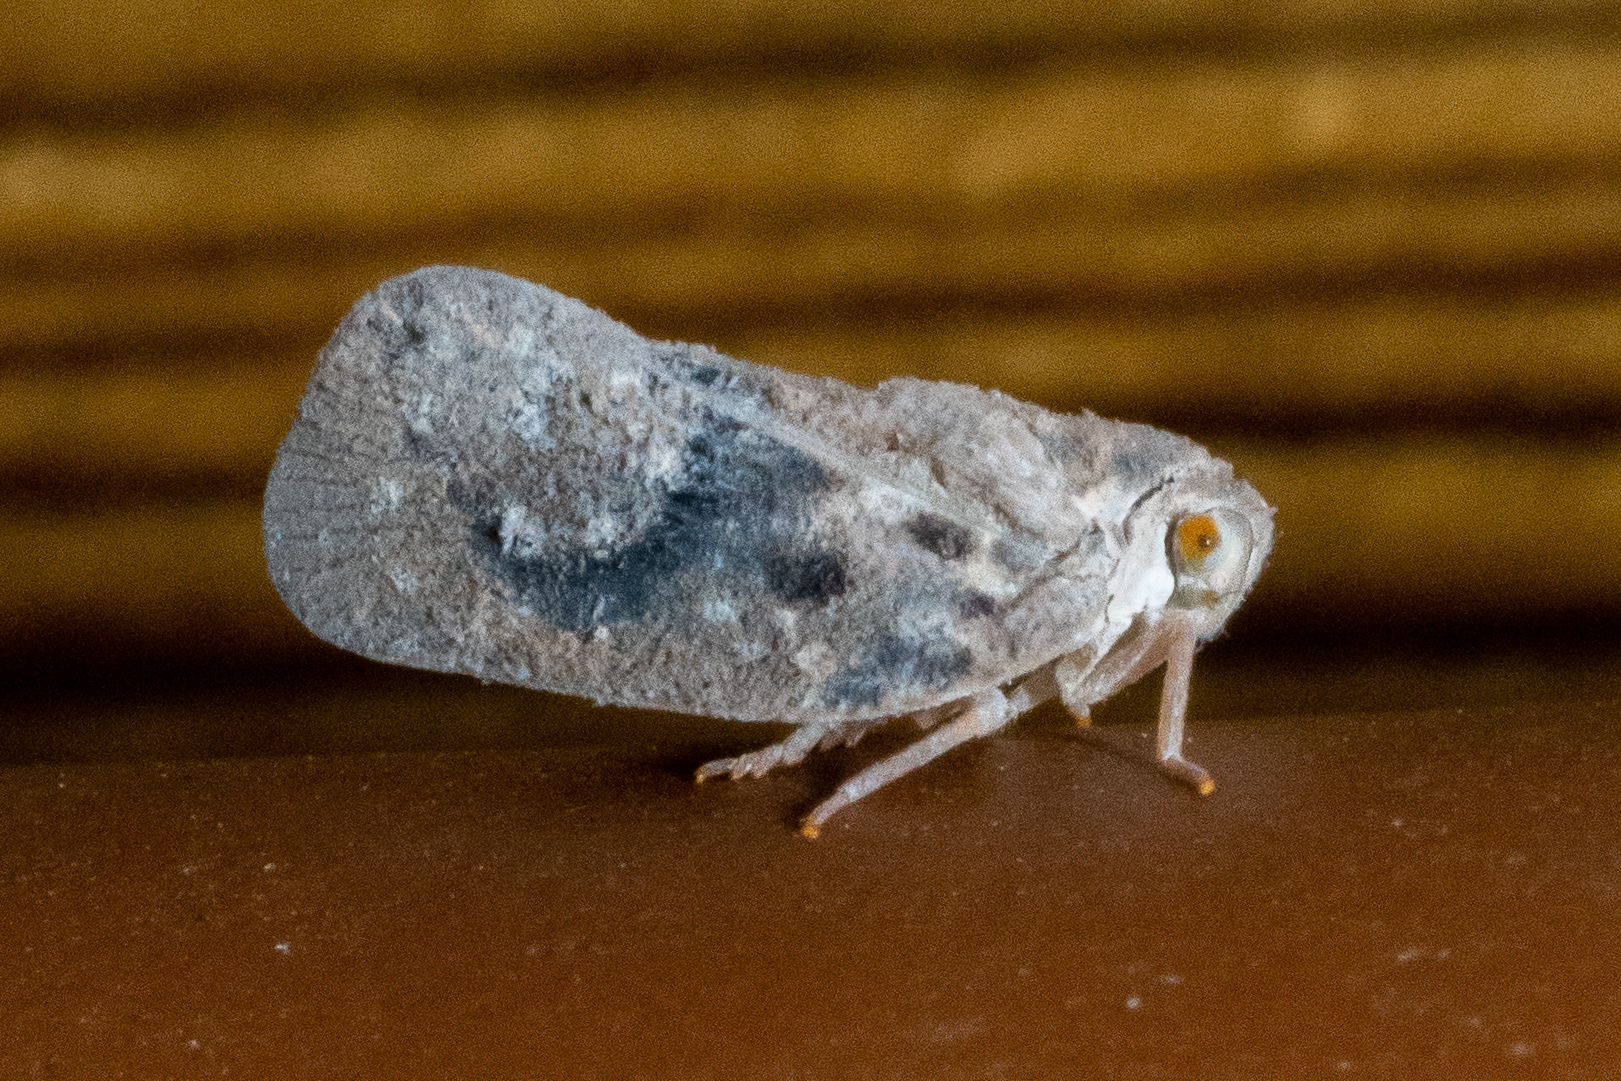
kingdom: Animalia
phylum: Arthropoda
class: Insecta
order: Hemiptera
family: Flatidae
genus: Metcalfa
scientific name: Metcalfa pruinosa
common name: Citrus flatid planthopper
